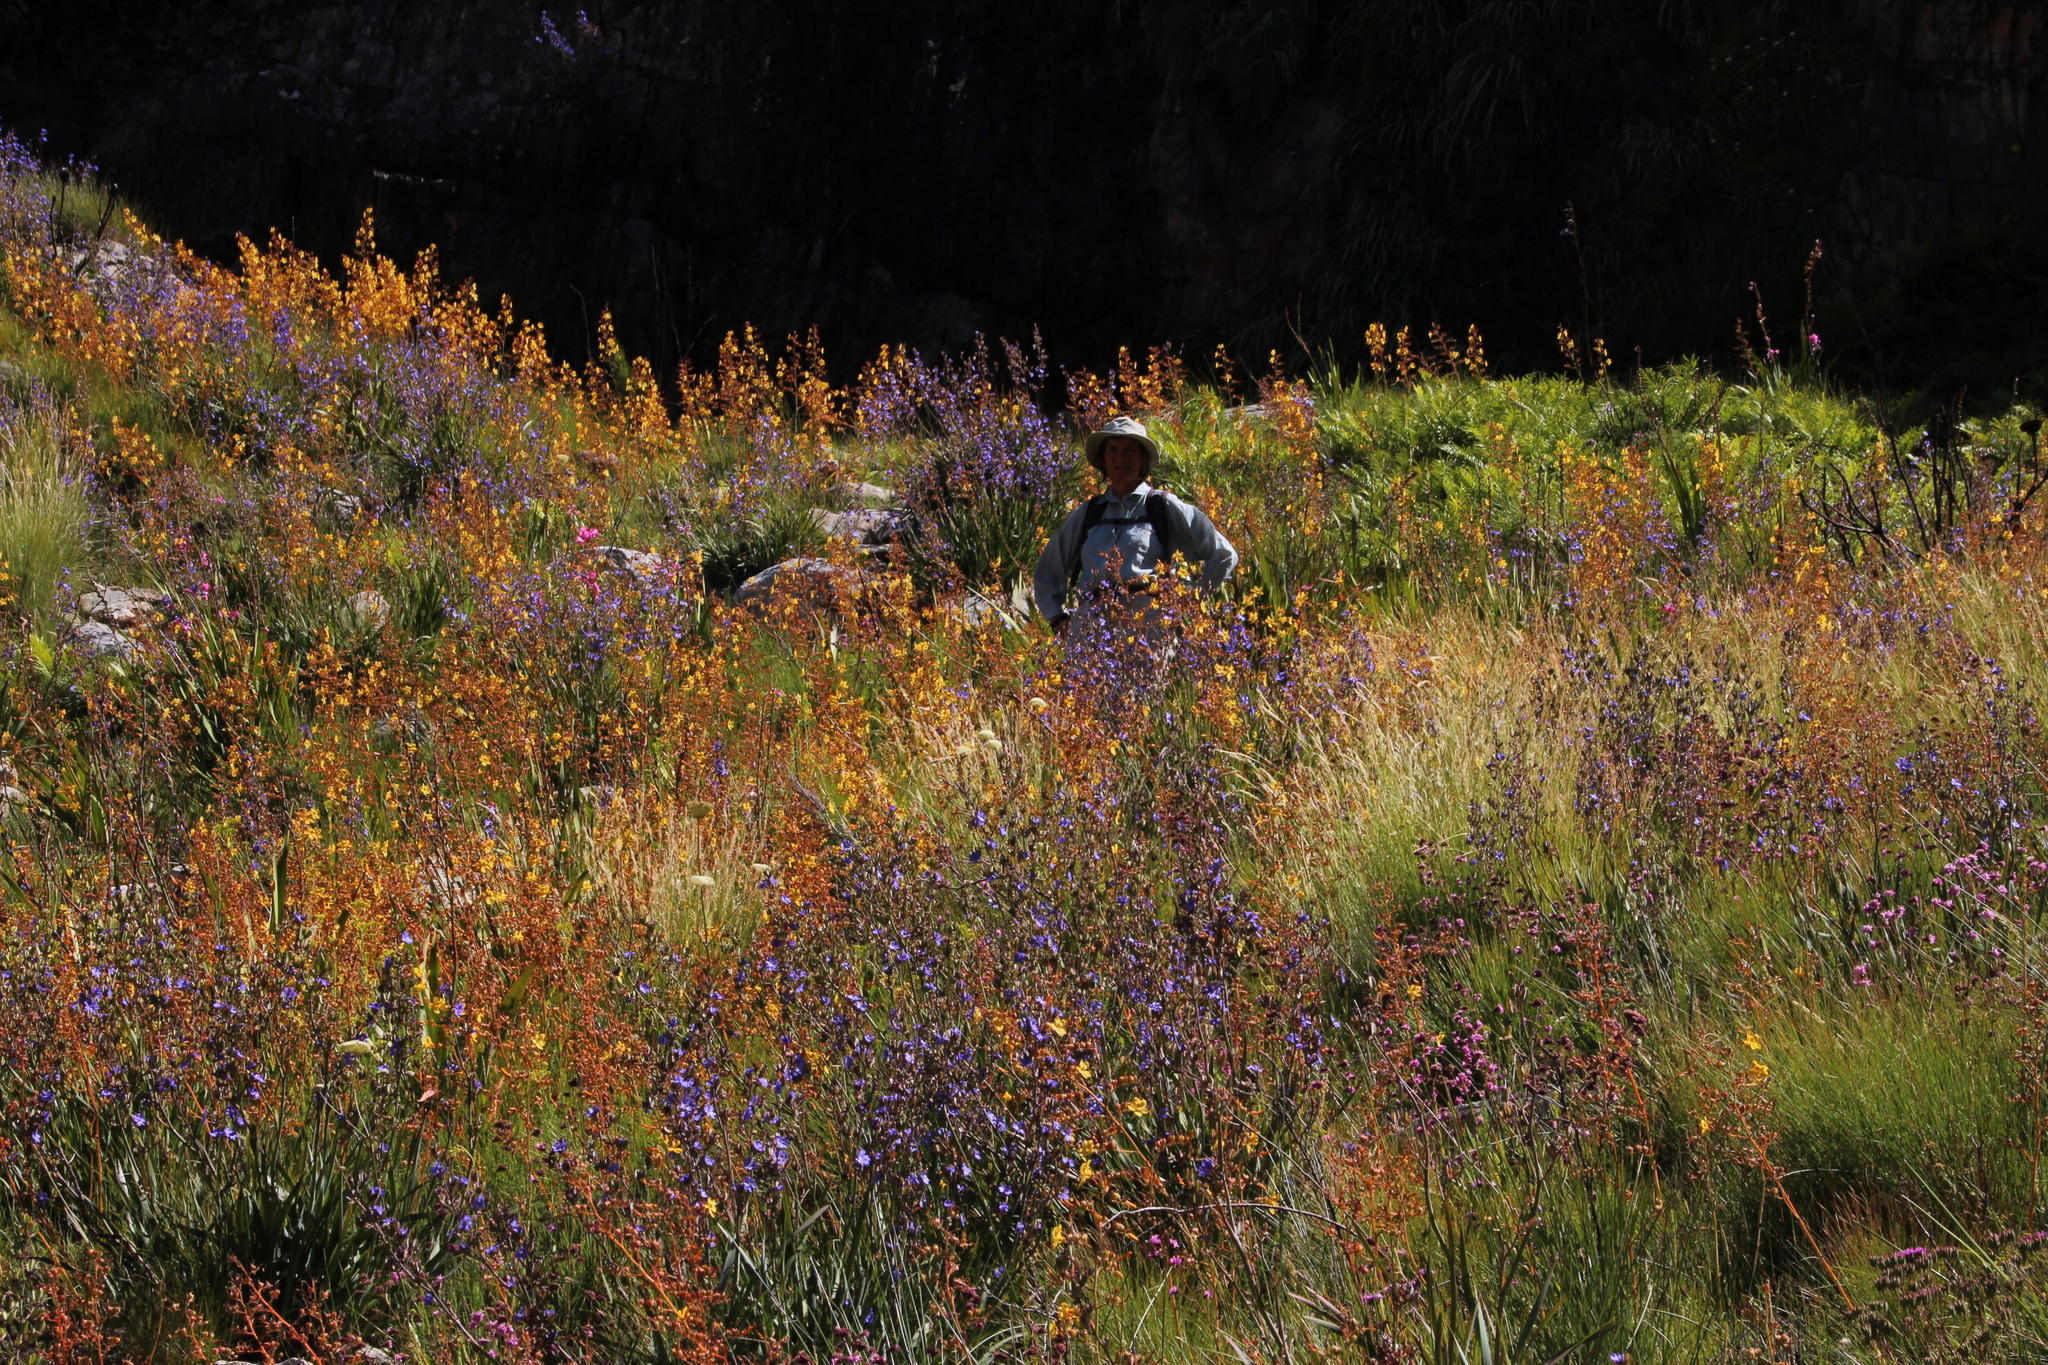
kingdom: Plantae
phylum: Tracheophyta
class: Liliopsida
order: Asparagales
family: Iridaceae
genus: Aristea
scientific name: Aristea bakeri
